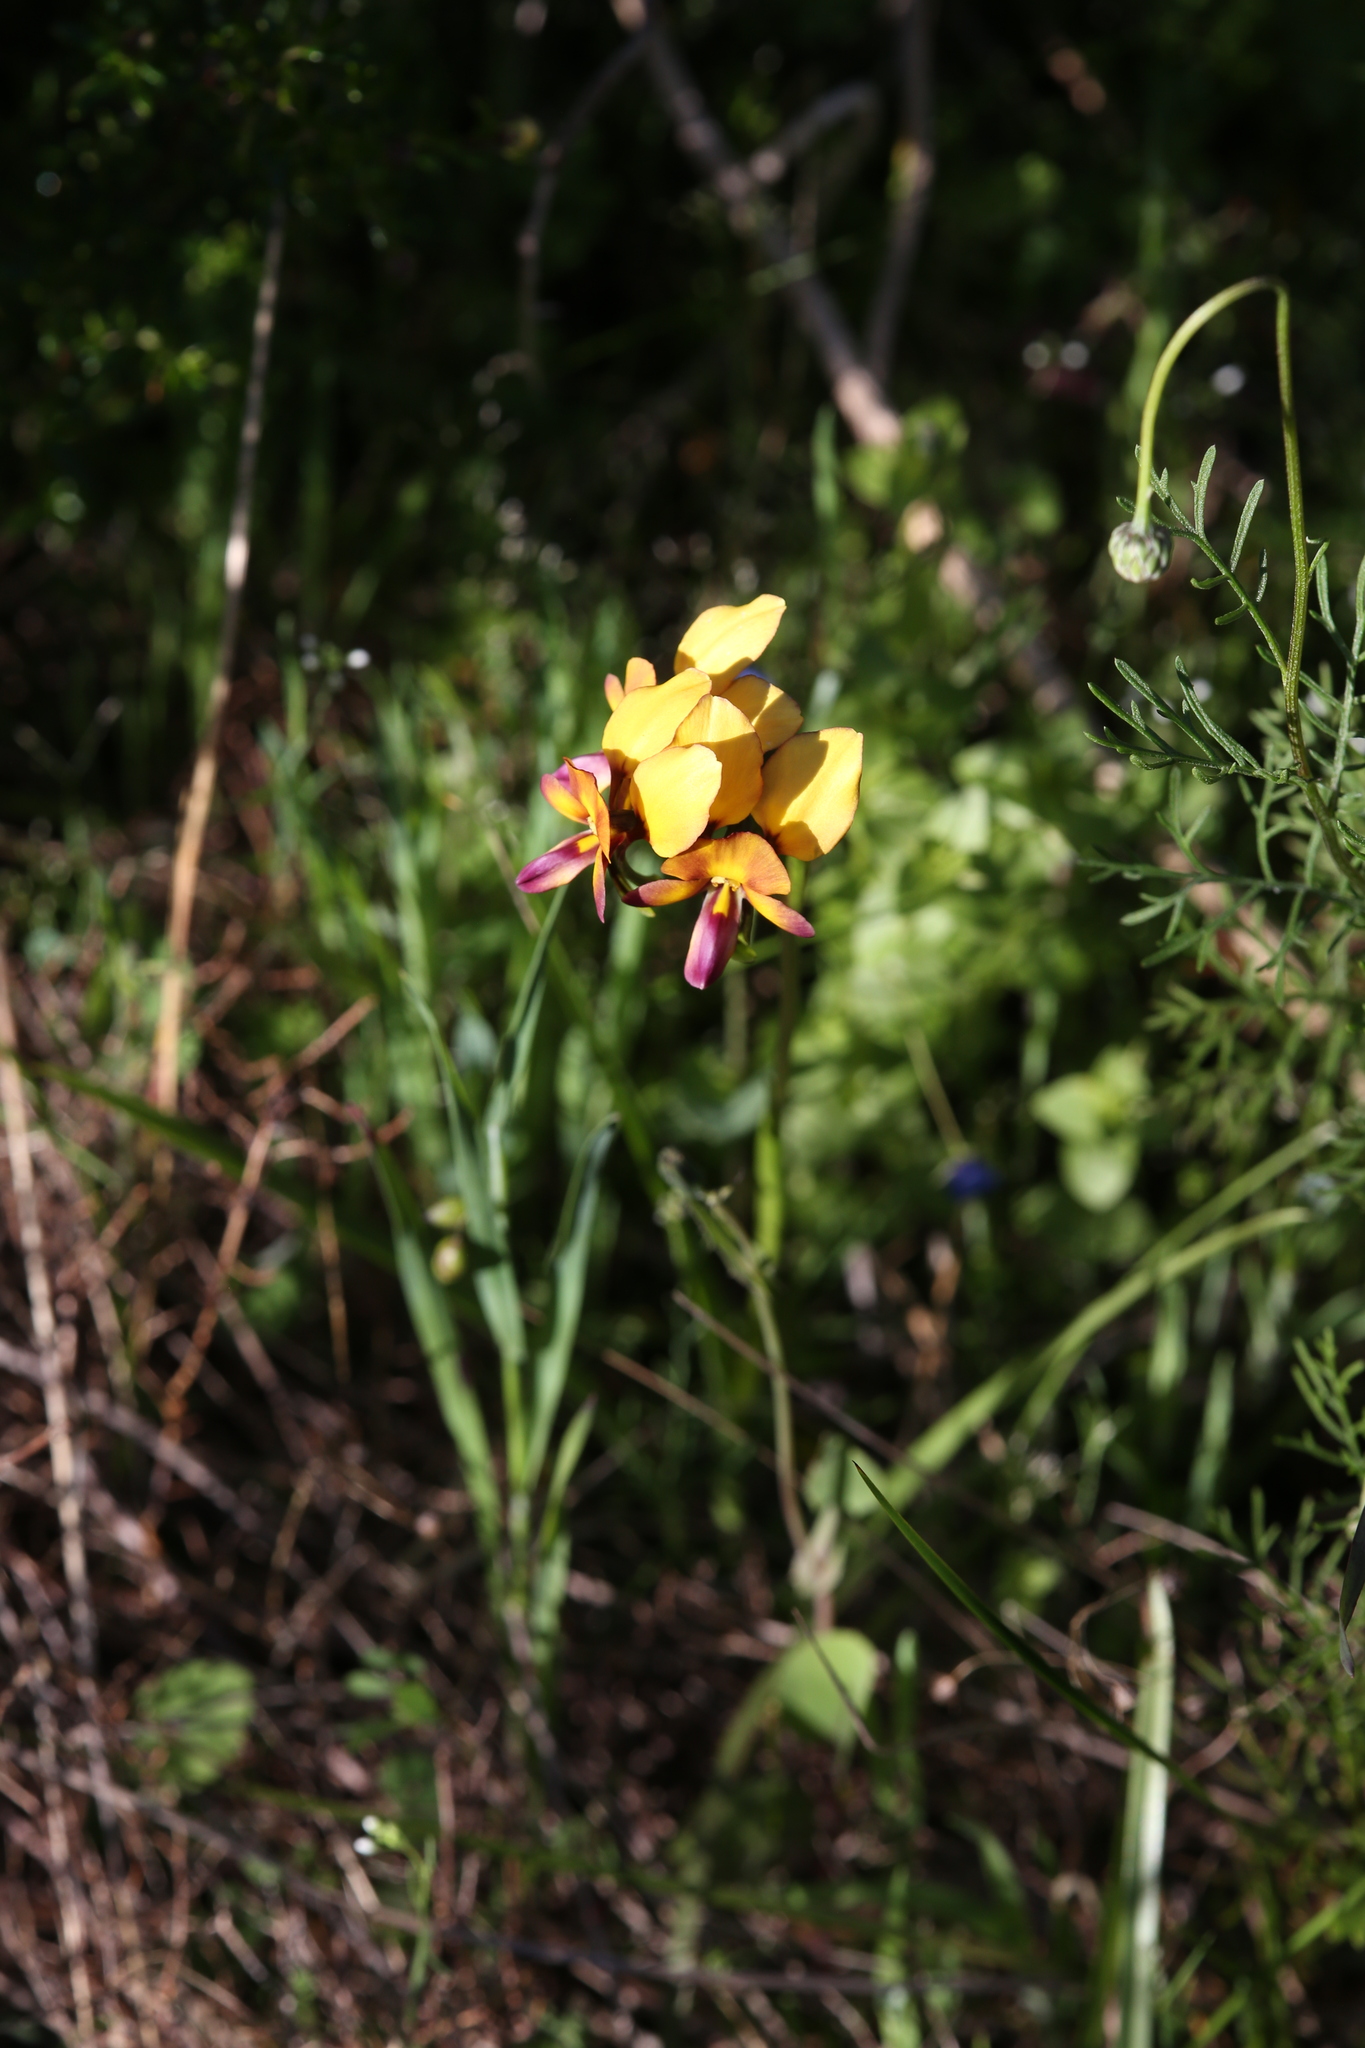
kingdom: Plantae
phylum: Tracheophyta
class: Liliopsida
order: Asparagales
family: Orchidaceae
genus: Diuris
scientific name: Diuris magnifica
